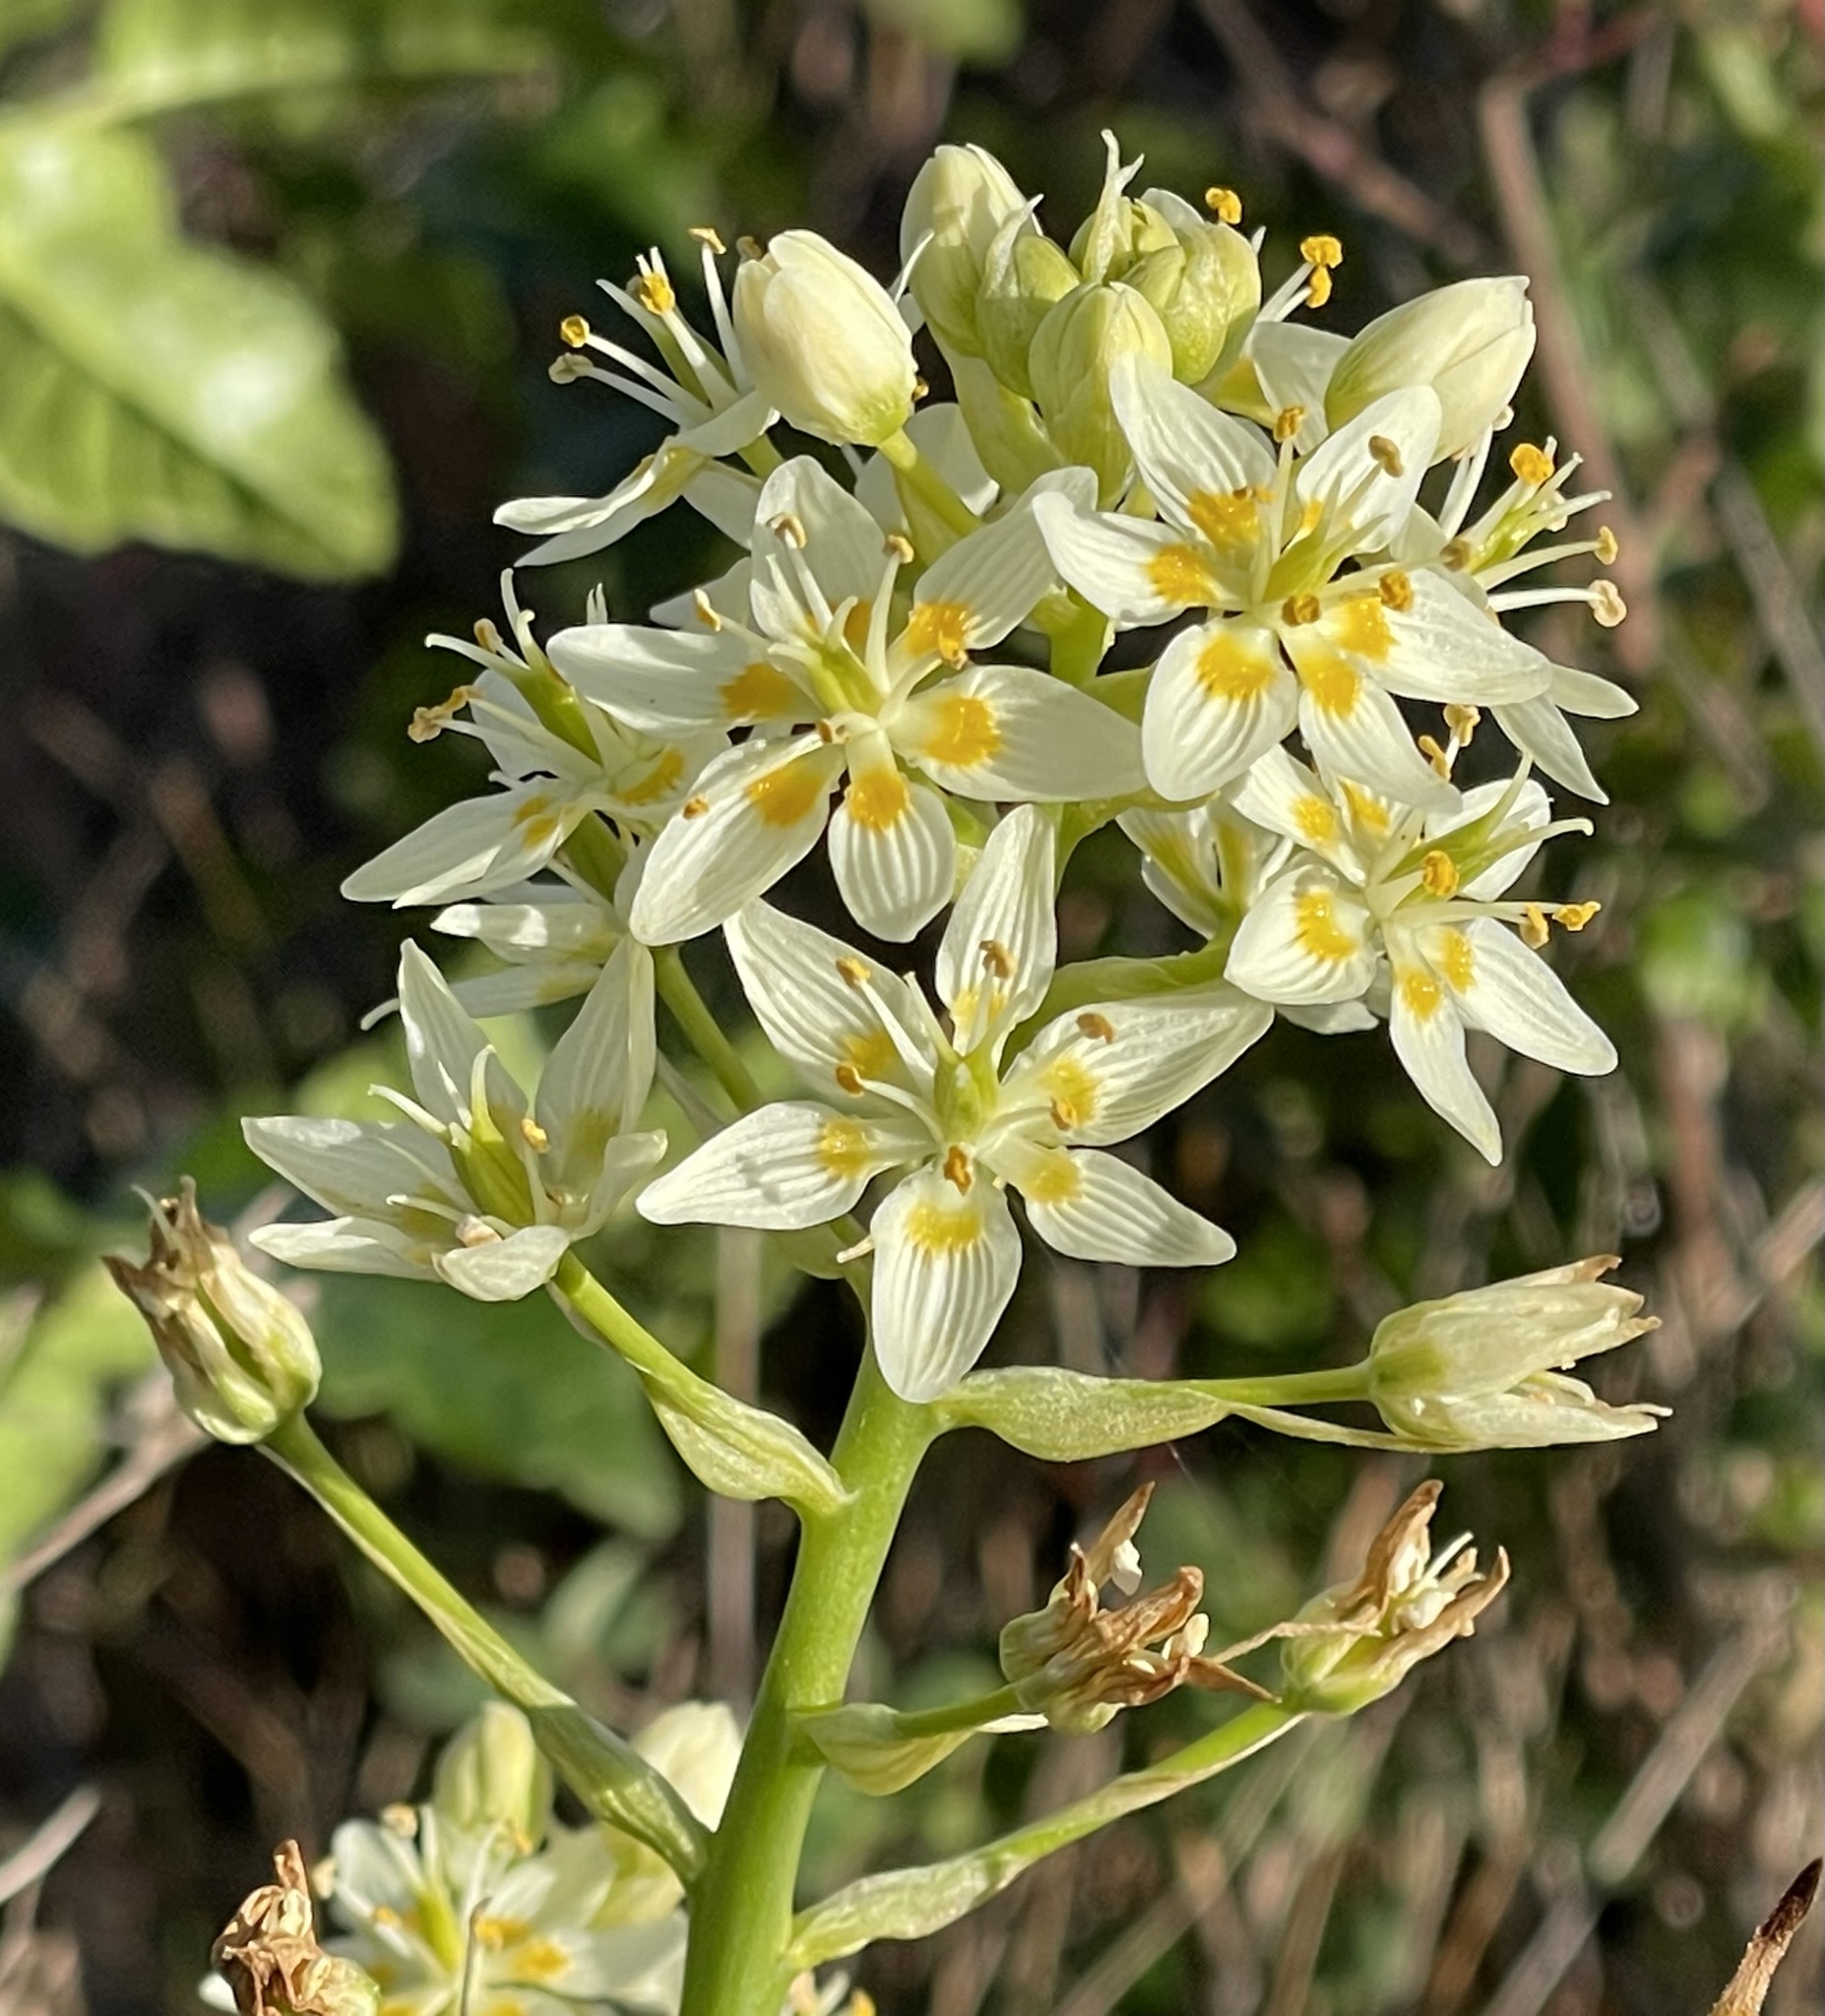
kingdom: Plantae
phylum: Tracheophyta
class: Liliopsida
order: Liliales
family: Melanthiaceae
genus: Toxicoscordion
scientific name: Toxicoscordion fremontii
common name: Fremont's death camas
